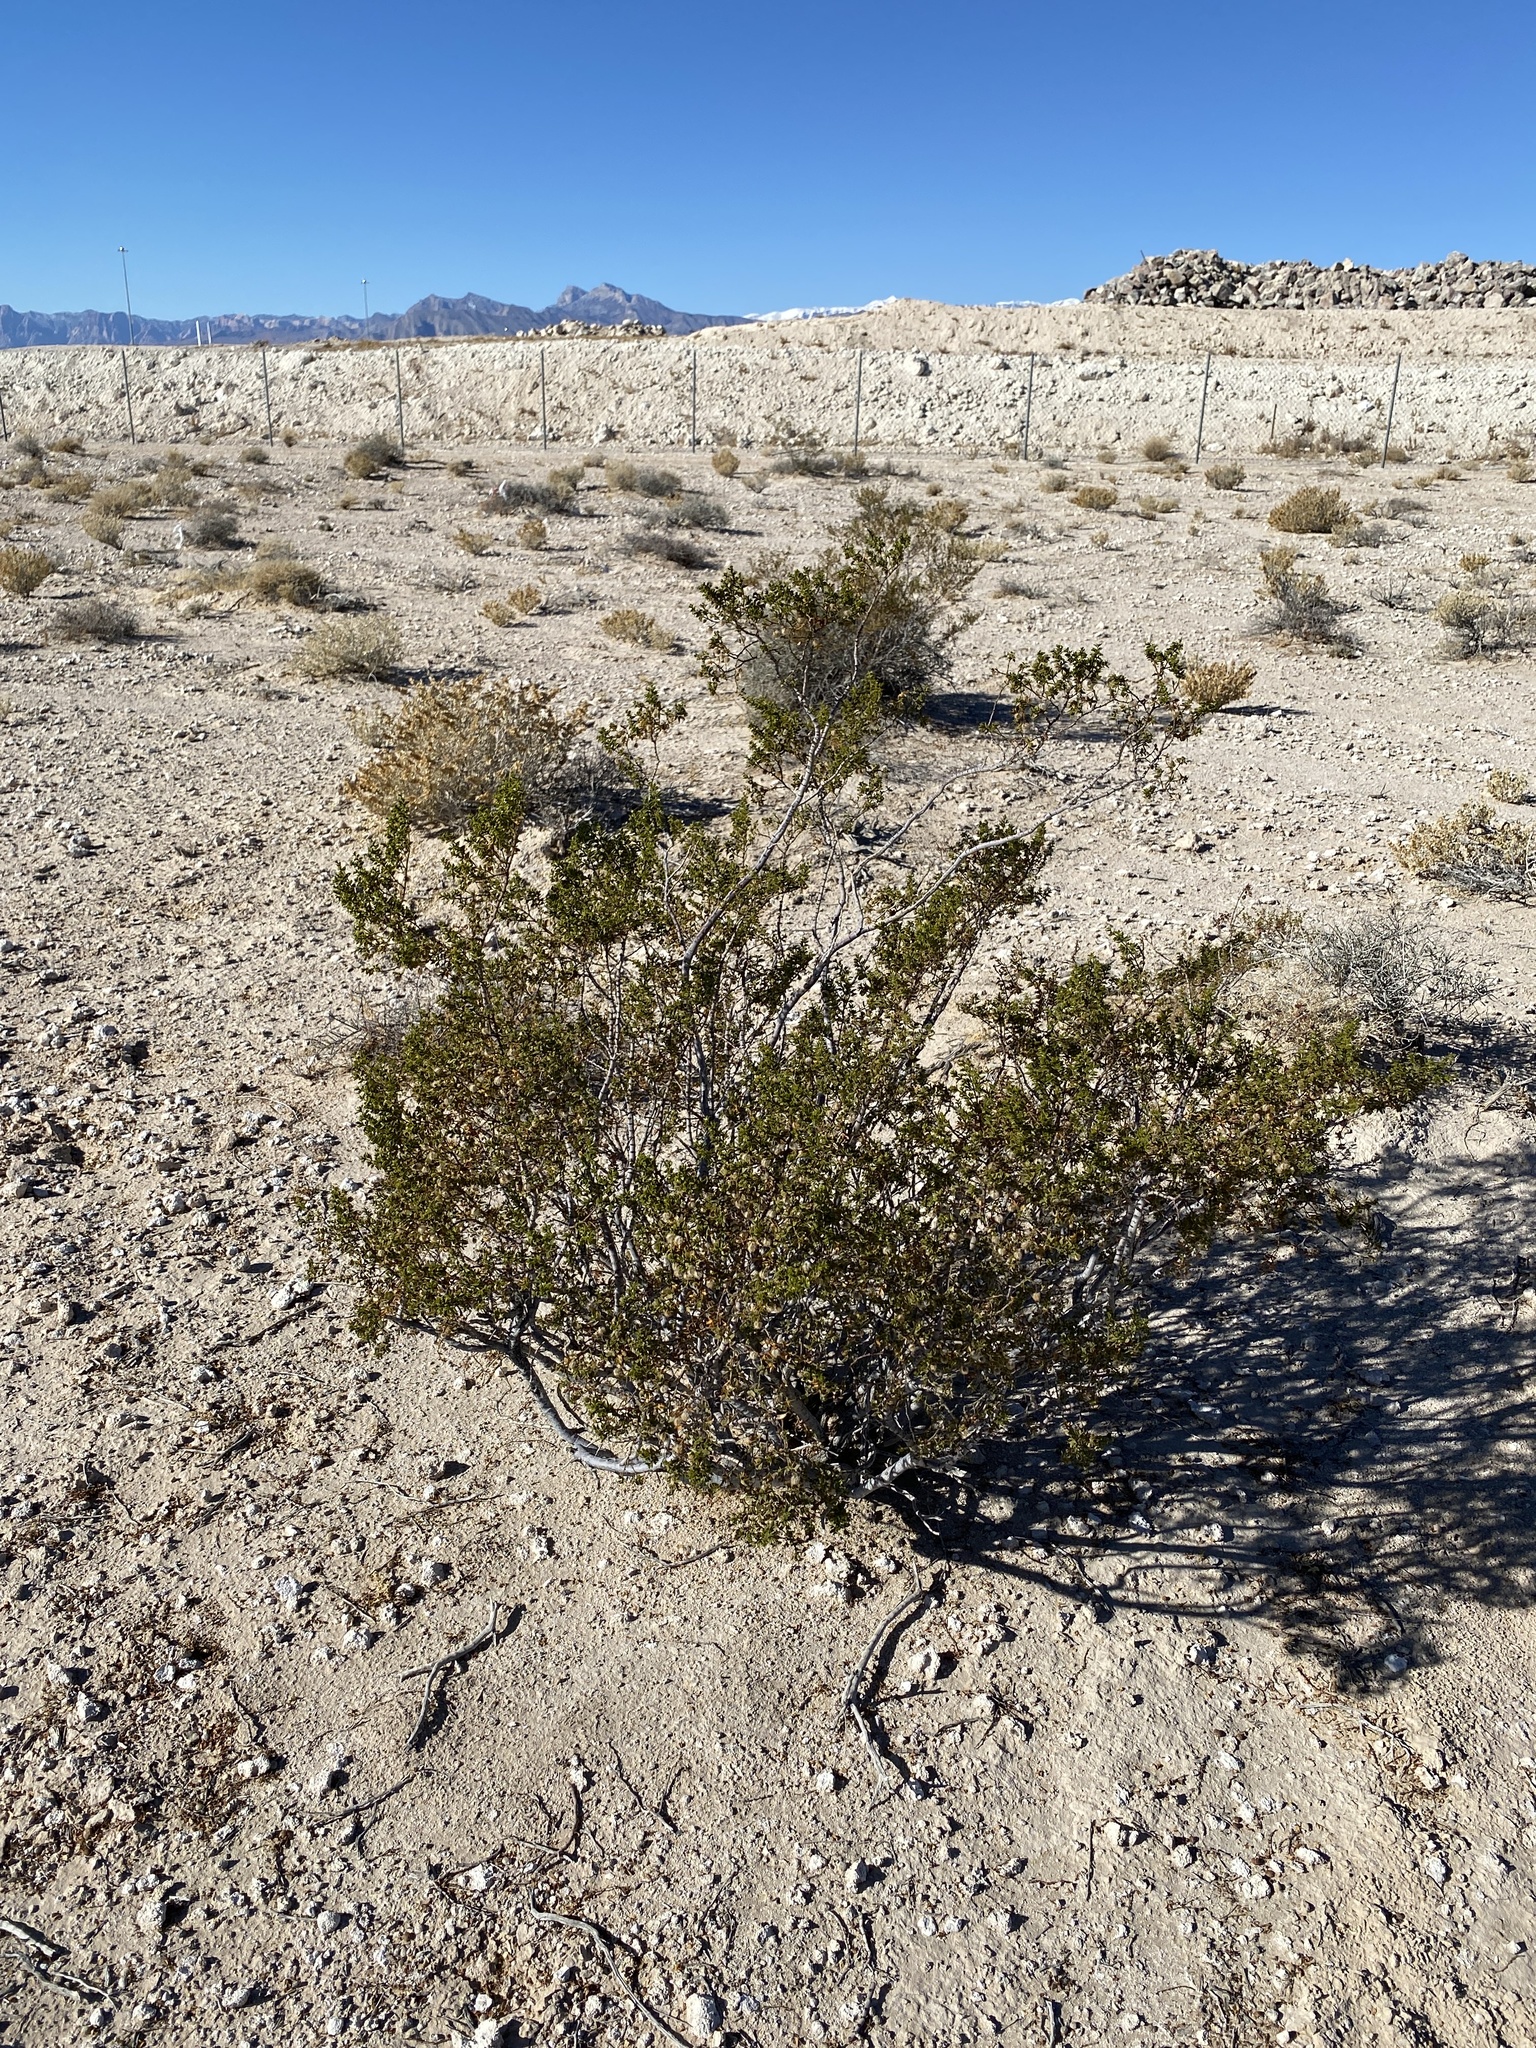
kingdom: Plantae
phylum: Tracheophyta
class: Magnoliopsida
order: Zygophyllales
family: Zygophyllaceae
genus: Larrea
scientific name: Larrea tridentata
